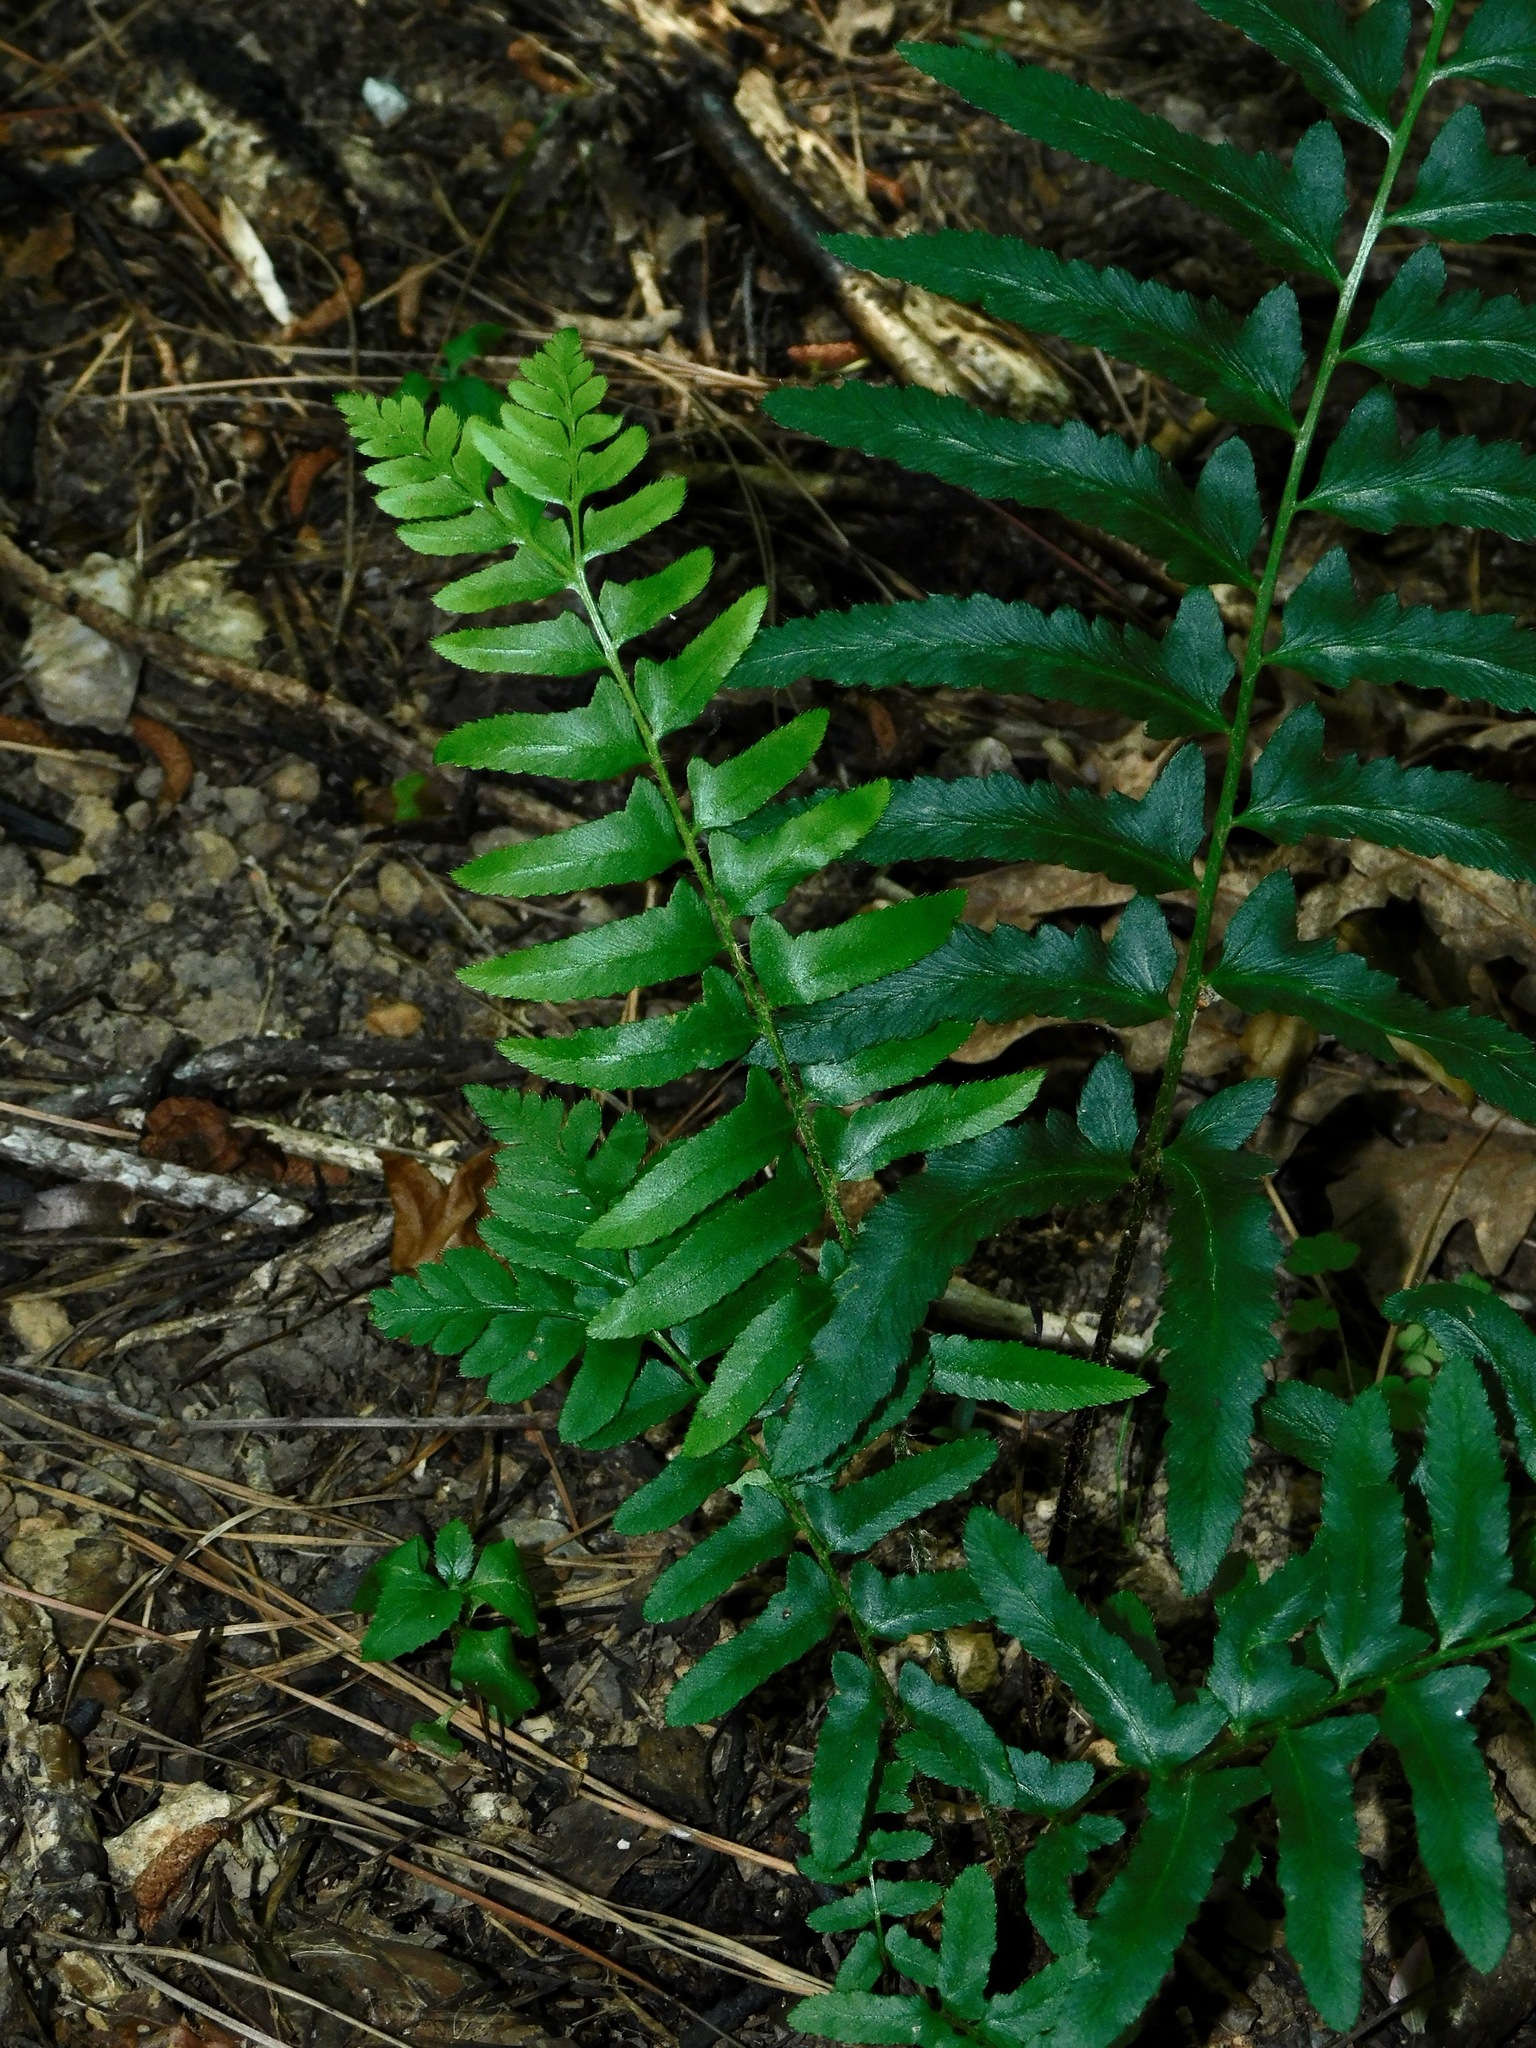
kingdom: Plantae
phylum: Tracheophyta
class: Polypodiopsida
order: Polypodiales
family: Dryopteridaceae
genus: Polystichum
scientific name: Polystichum acrostichoides
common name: Christmas fern
